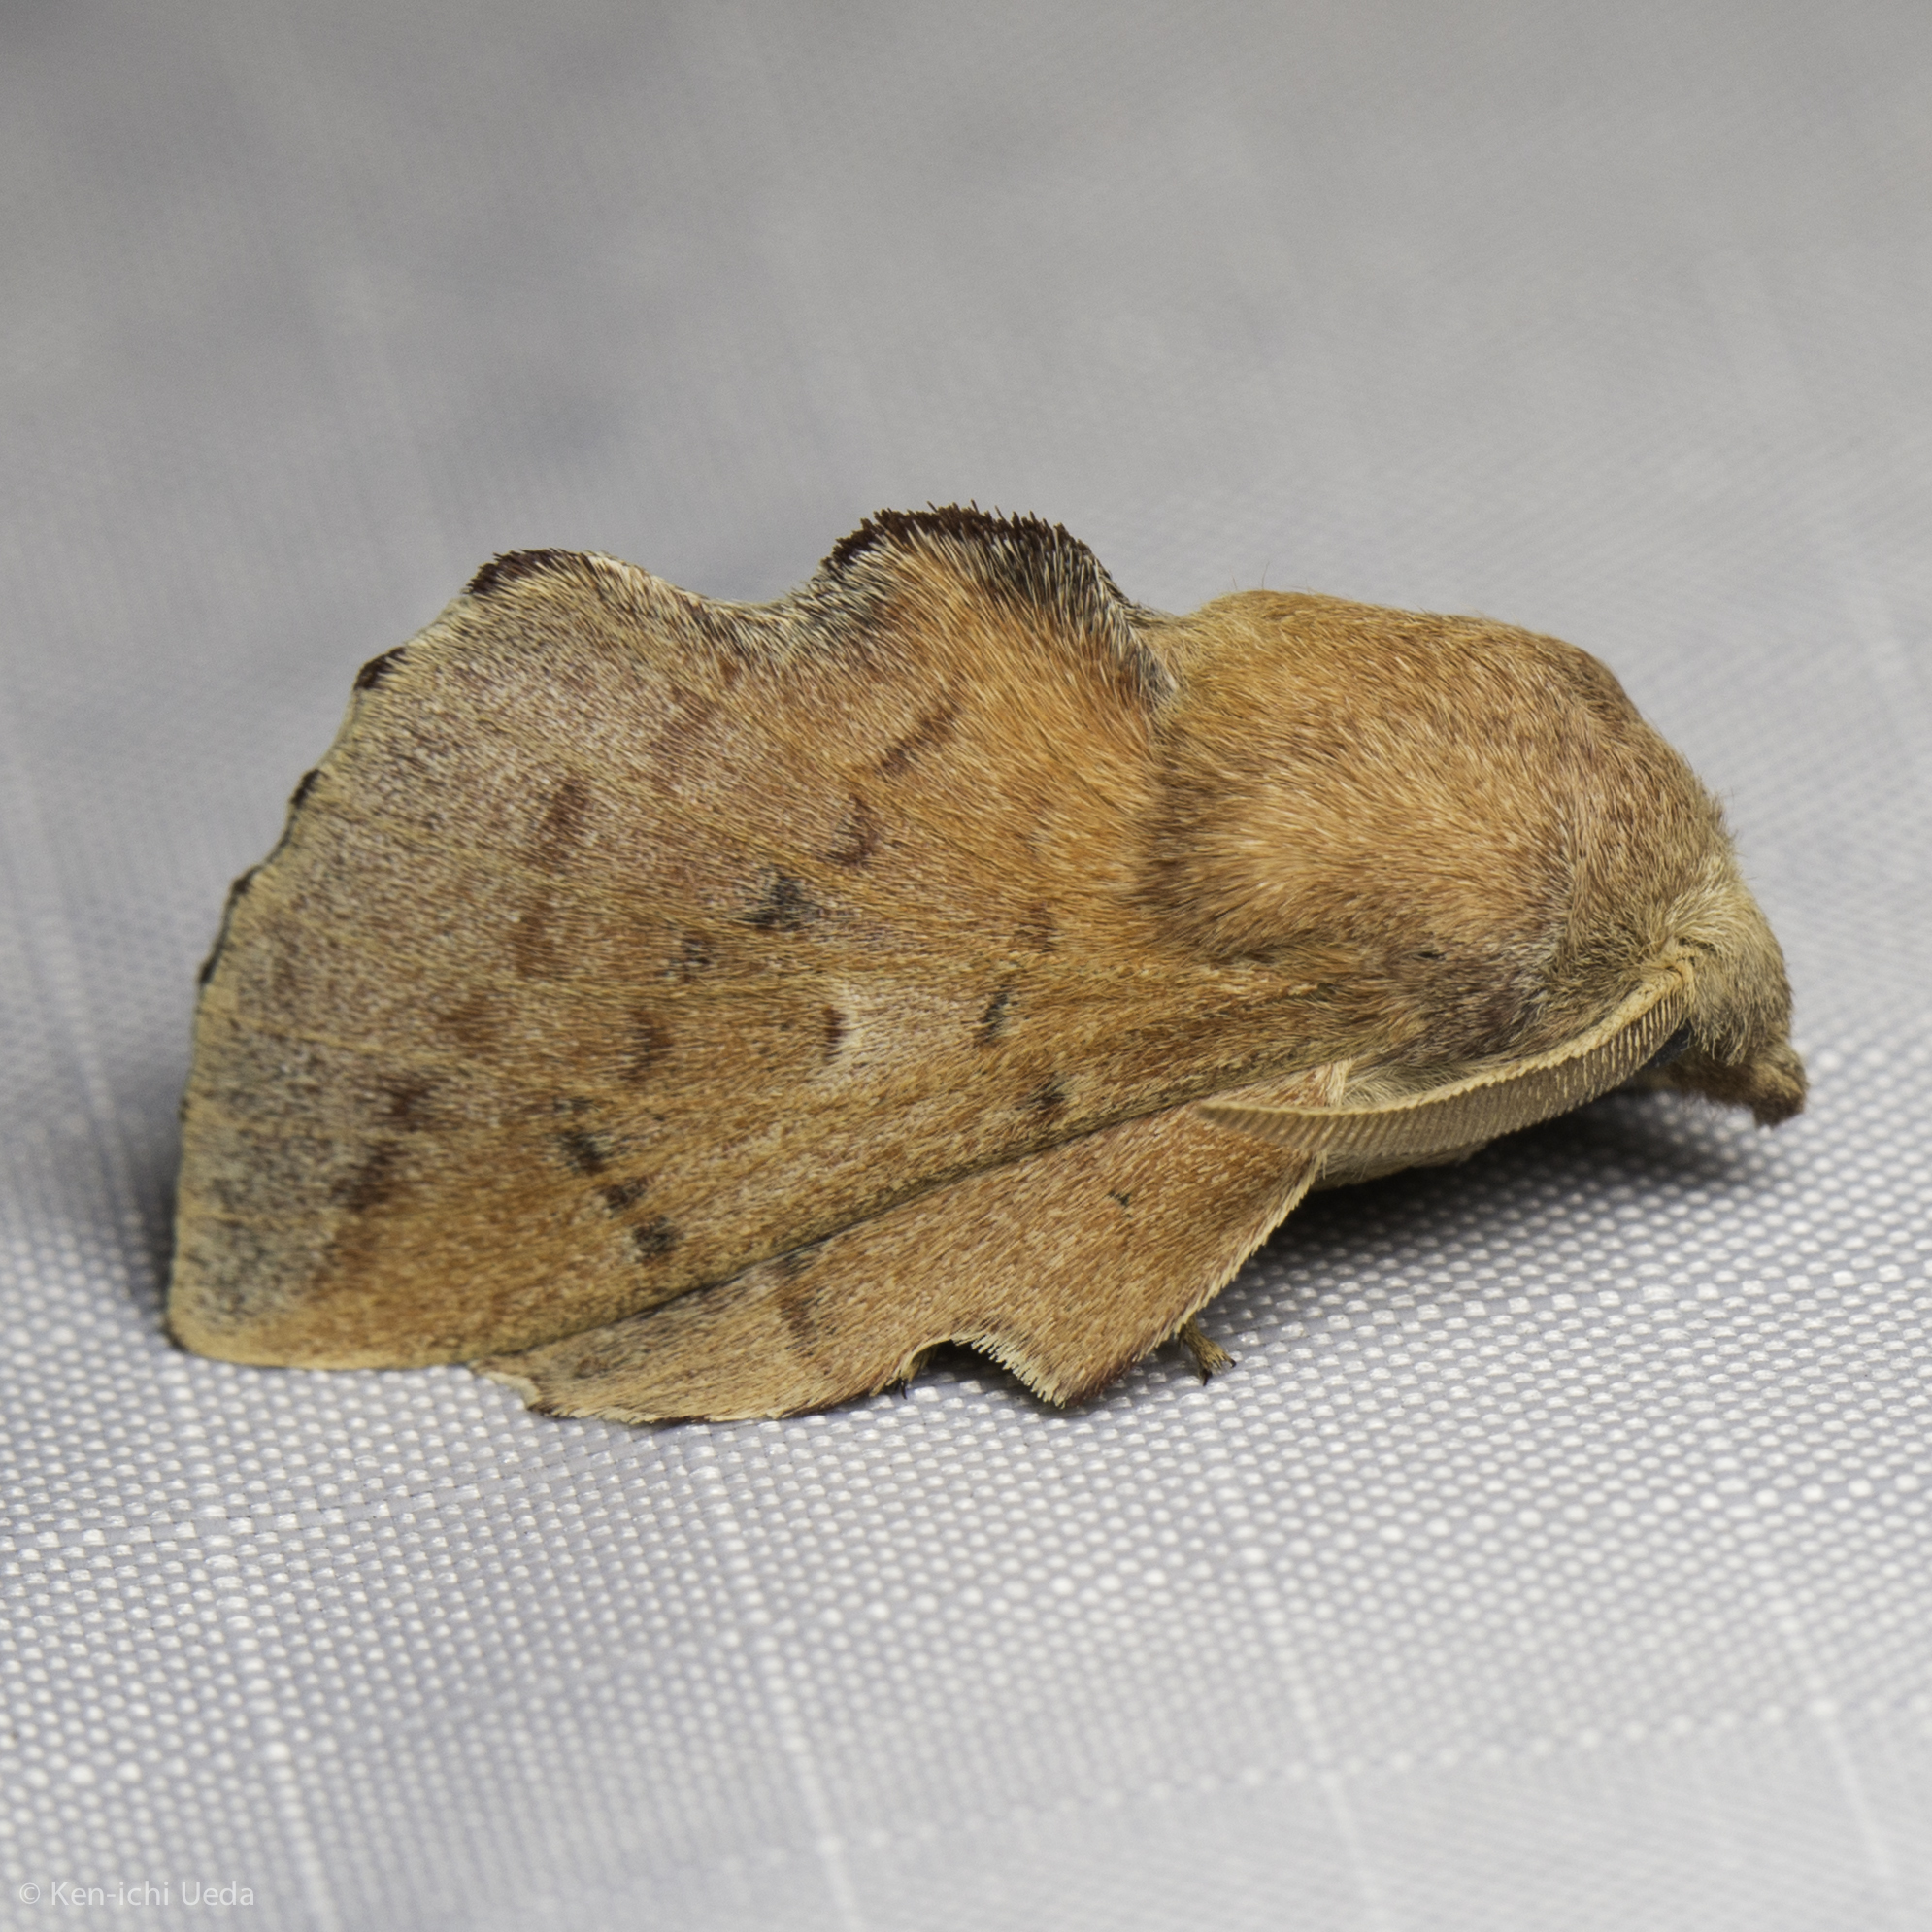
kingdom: Animalia
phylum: Arthropoda
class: Insecta
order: Lepidoptera
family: Lasiocampidae
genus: Phyllodesma
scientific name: Phyllodesma americana
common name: American lappet moth
